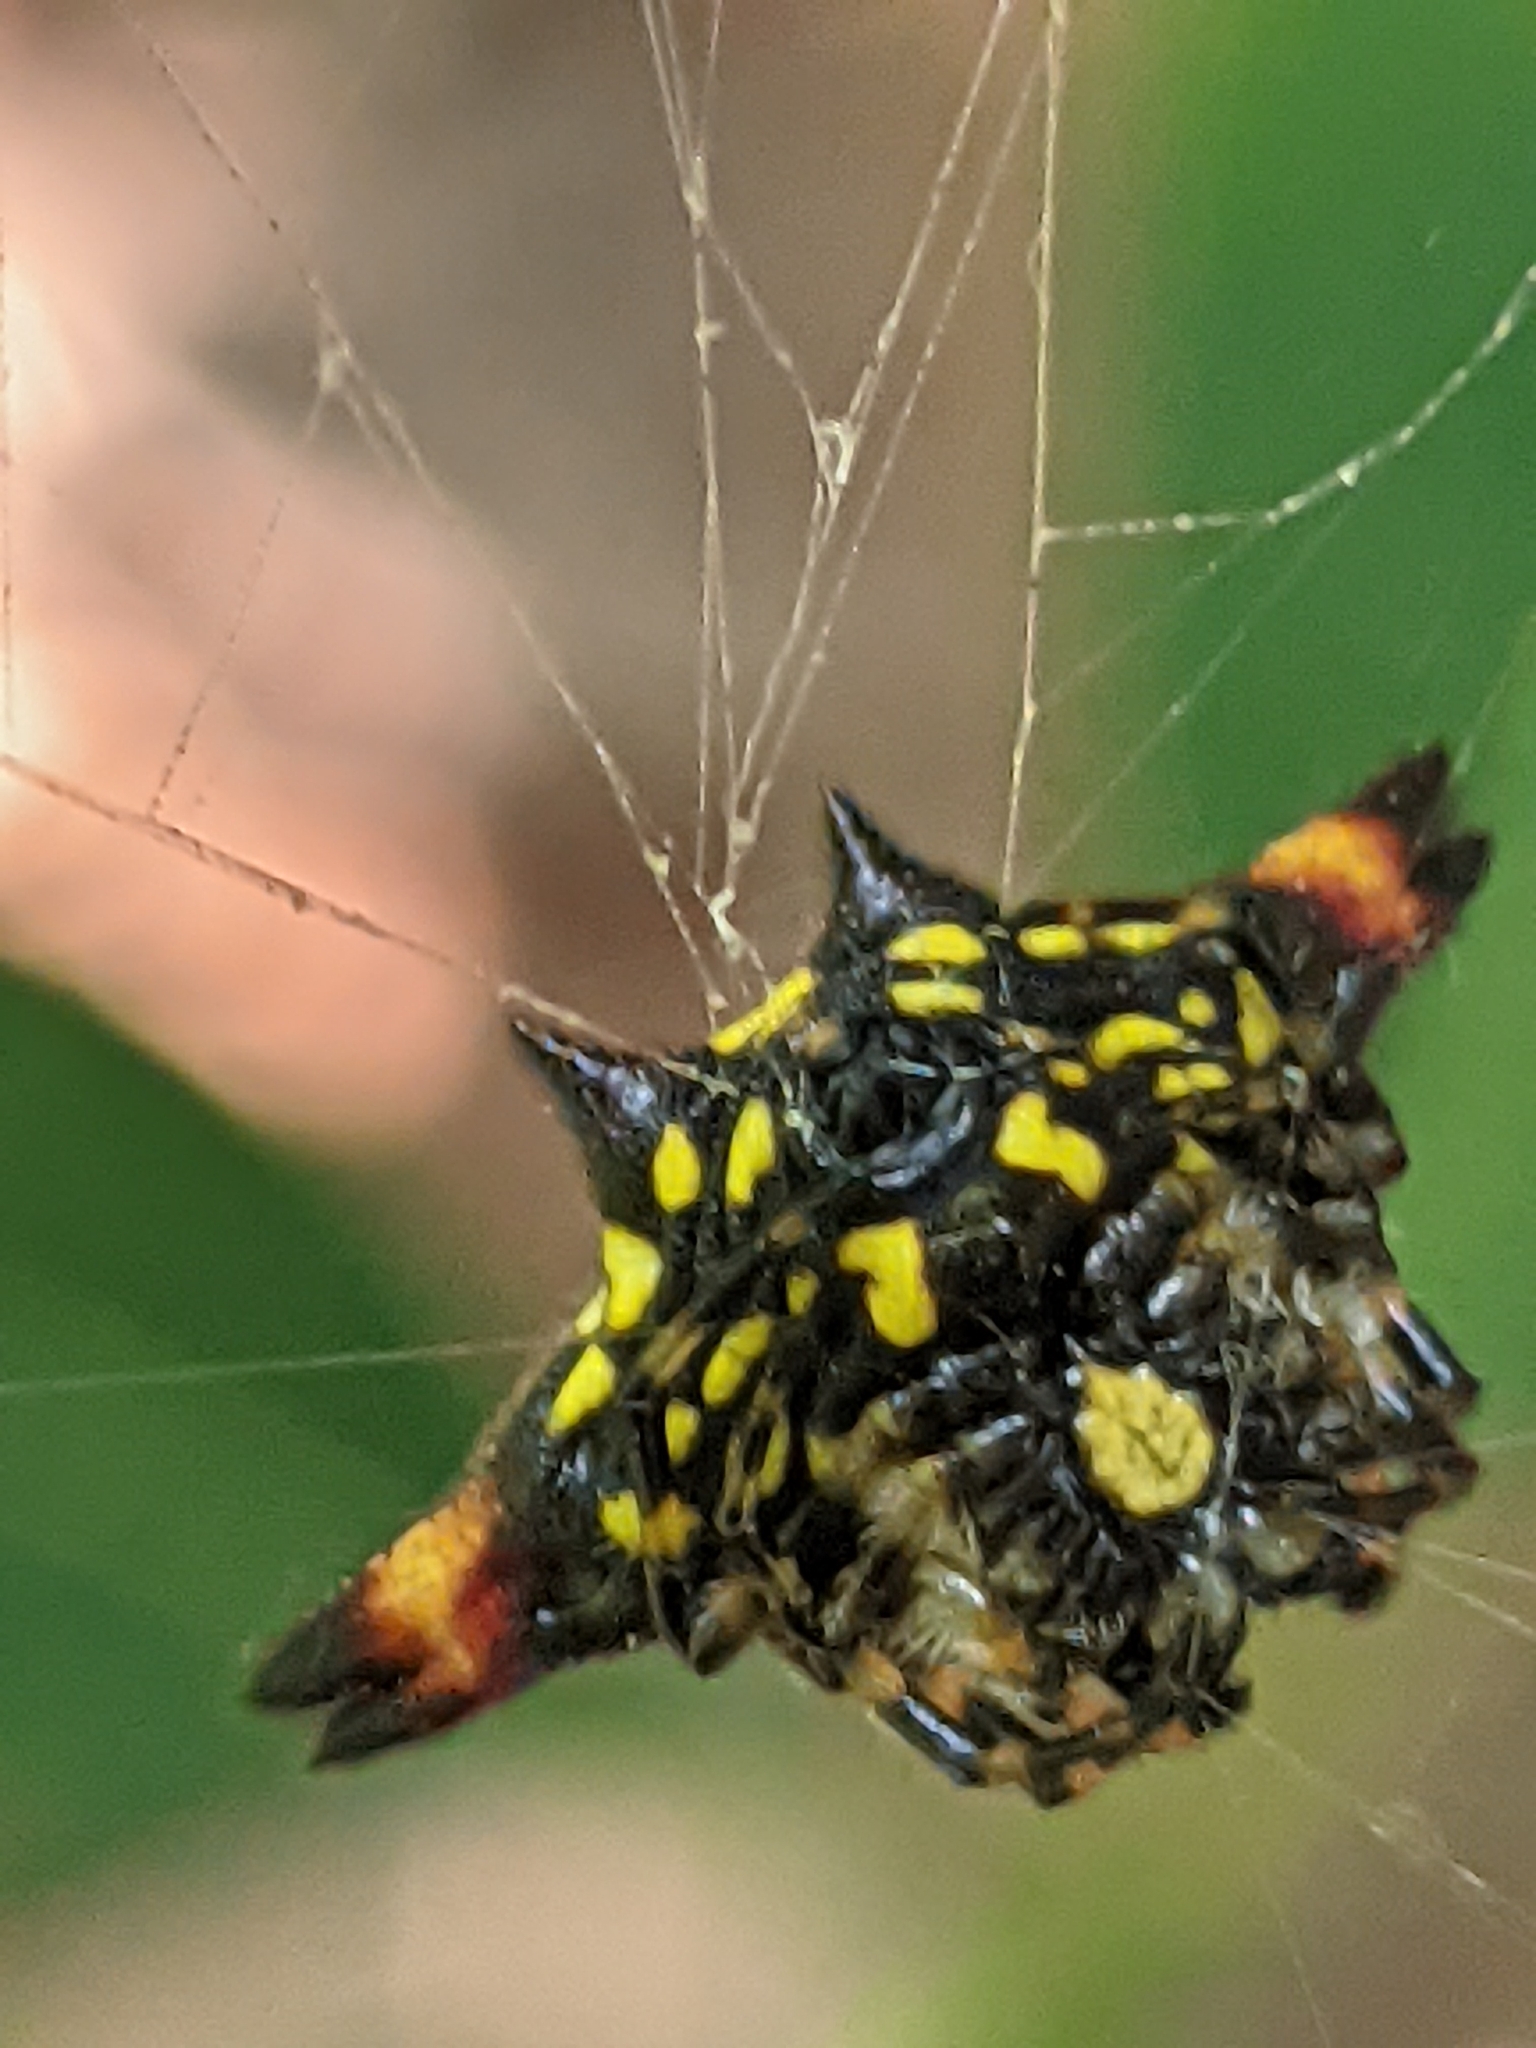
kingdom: Animalia
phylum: Arthropoda
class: Arachnida
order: Araneae
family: Araneidae
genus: Gasteracantha
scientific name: Gasteracantha geminata
